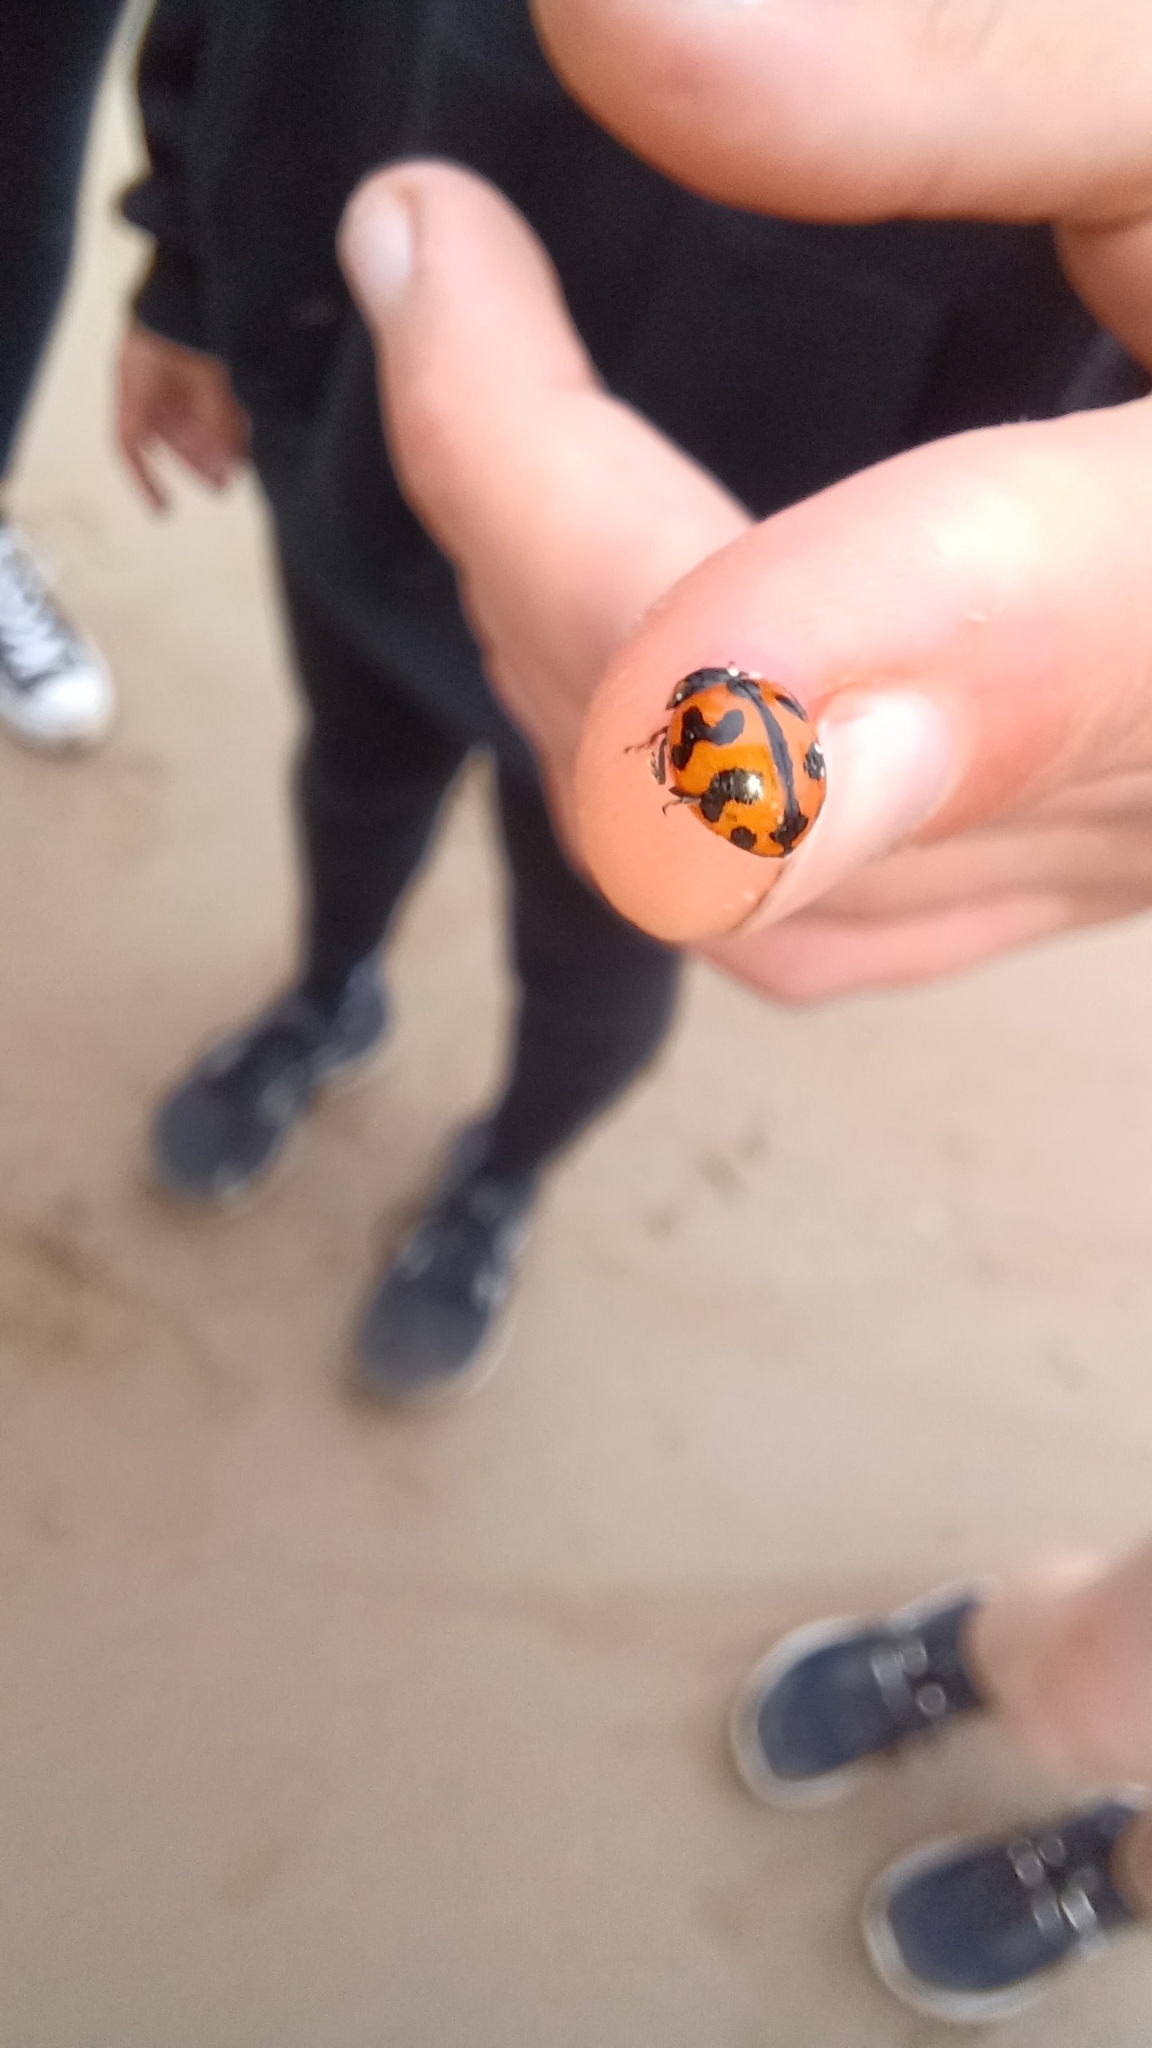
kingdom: Animalia
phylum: Arthropoda
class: Insecta
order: Coleoptera
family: Coccinellidae
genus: Coccinella
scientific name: Coccinella transversalis
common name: Transverse lady beetle
